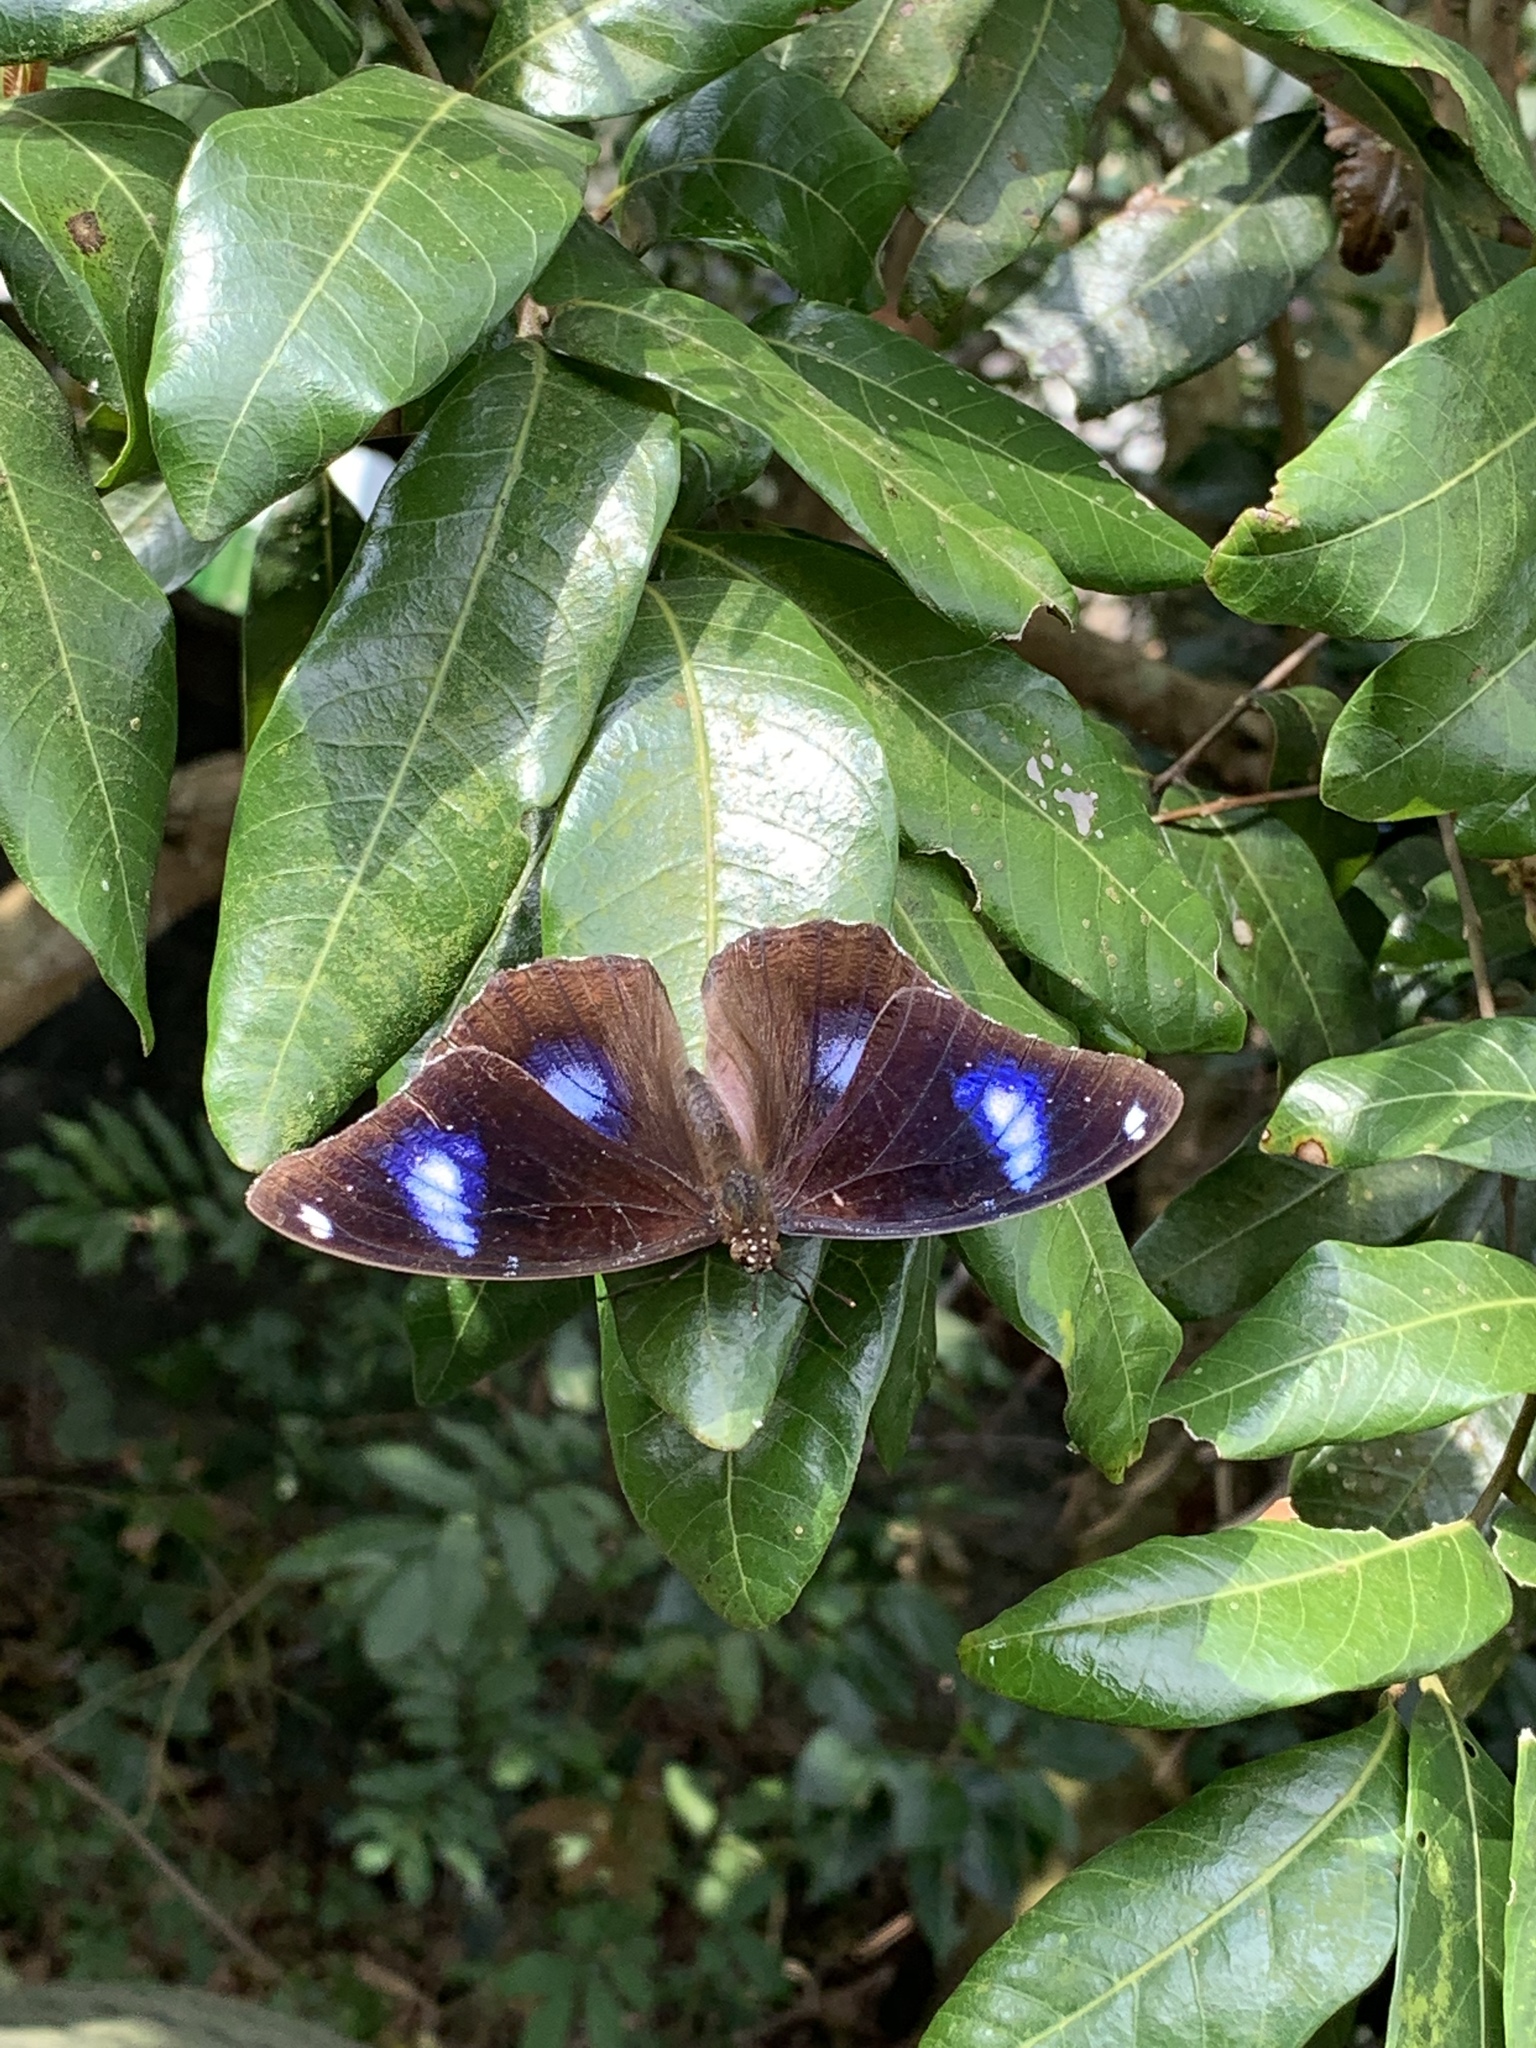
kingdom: Animalia
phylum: Arthropoda
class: Insecta
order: Lepidoptera
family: Nymphalidae
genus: Hypolimnas
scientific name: Hypolimnas bolina
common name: Great eggfly
